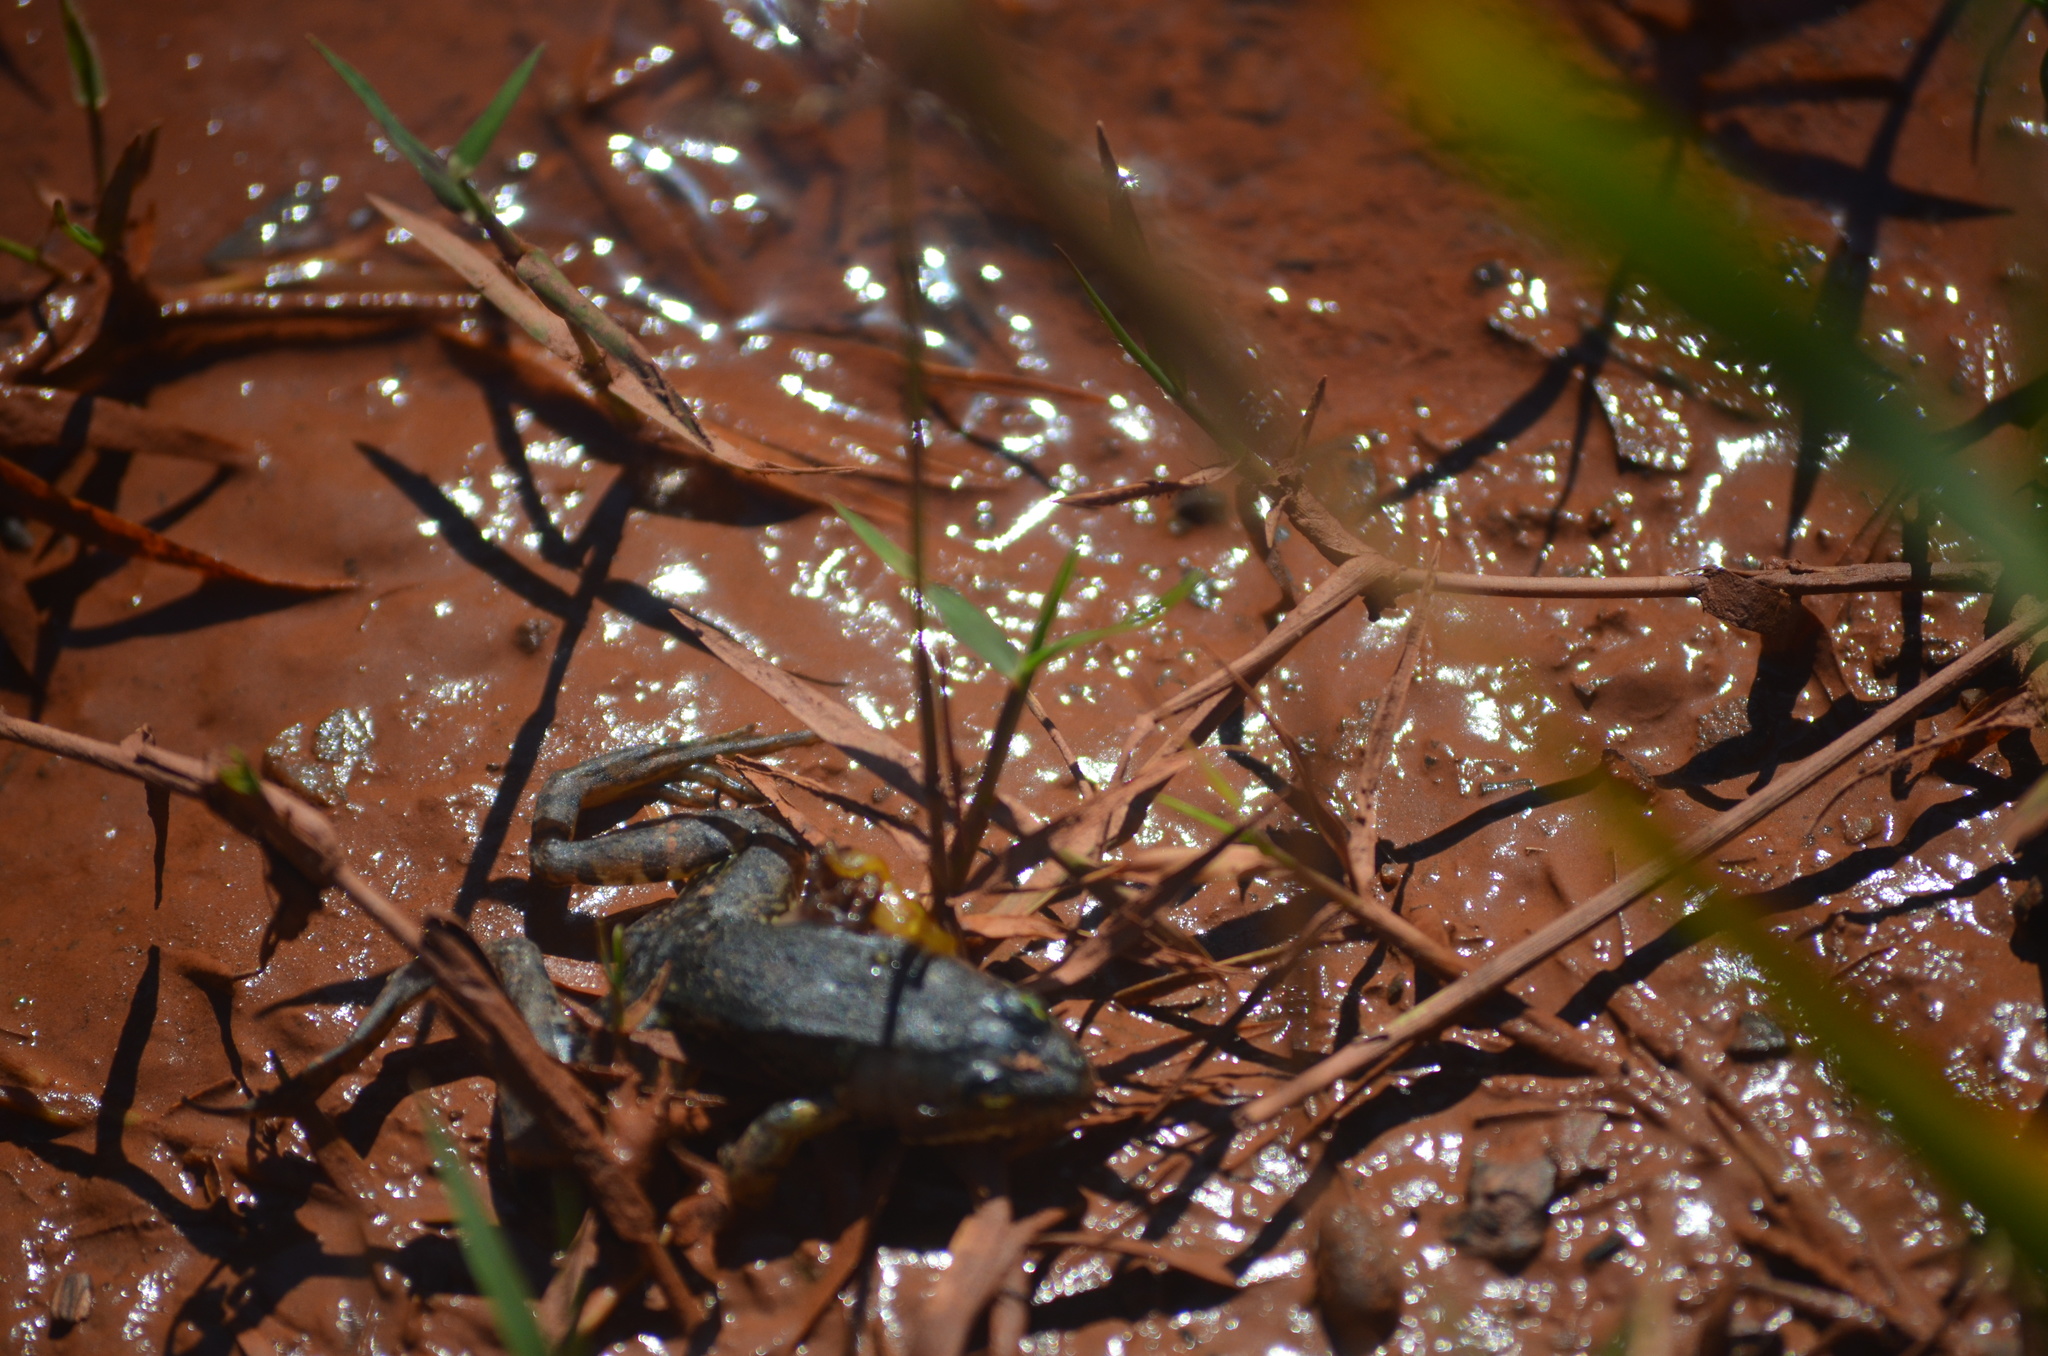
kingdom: Animalia
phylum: Chordata
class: Amphibia
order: Anura
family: Ranidae
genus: Pelophylax
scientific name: Pelophylax perezi
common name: Perez's frog
